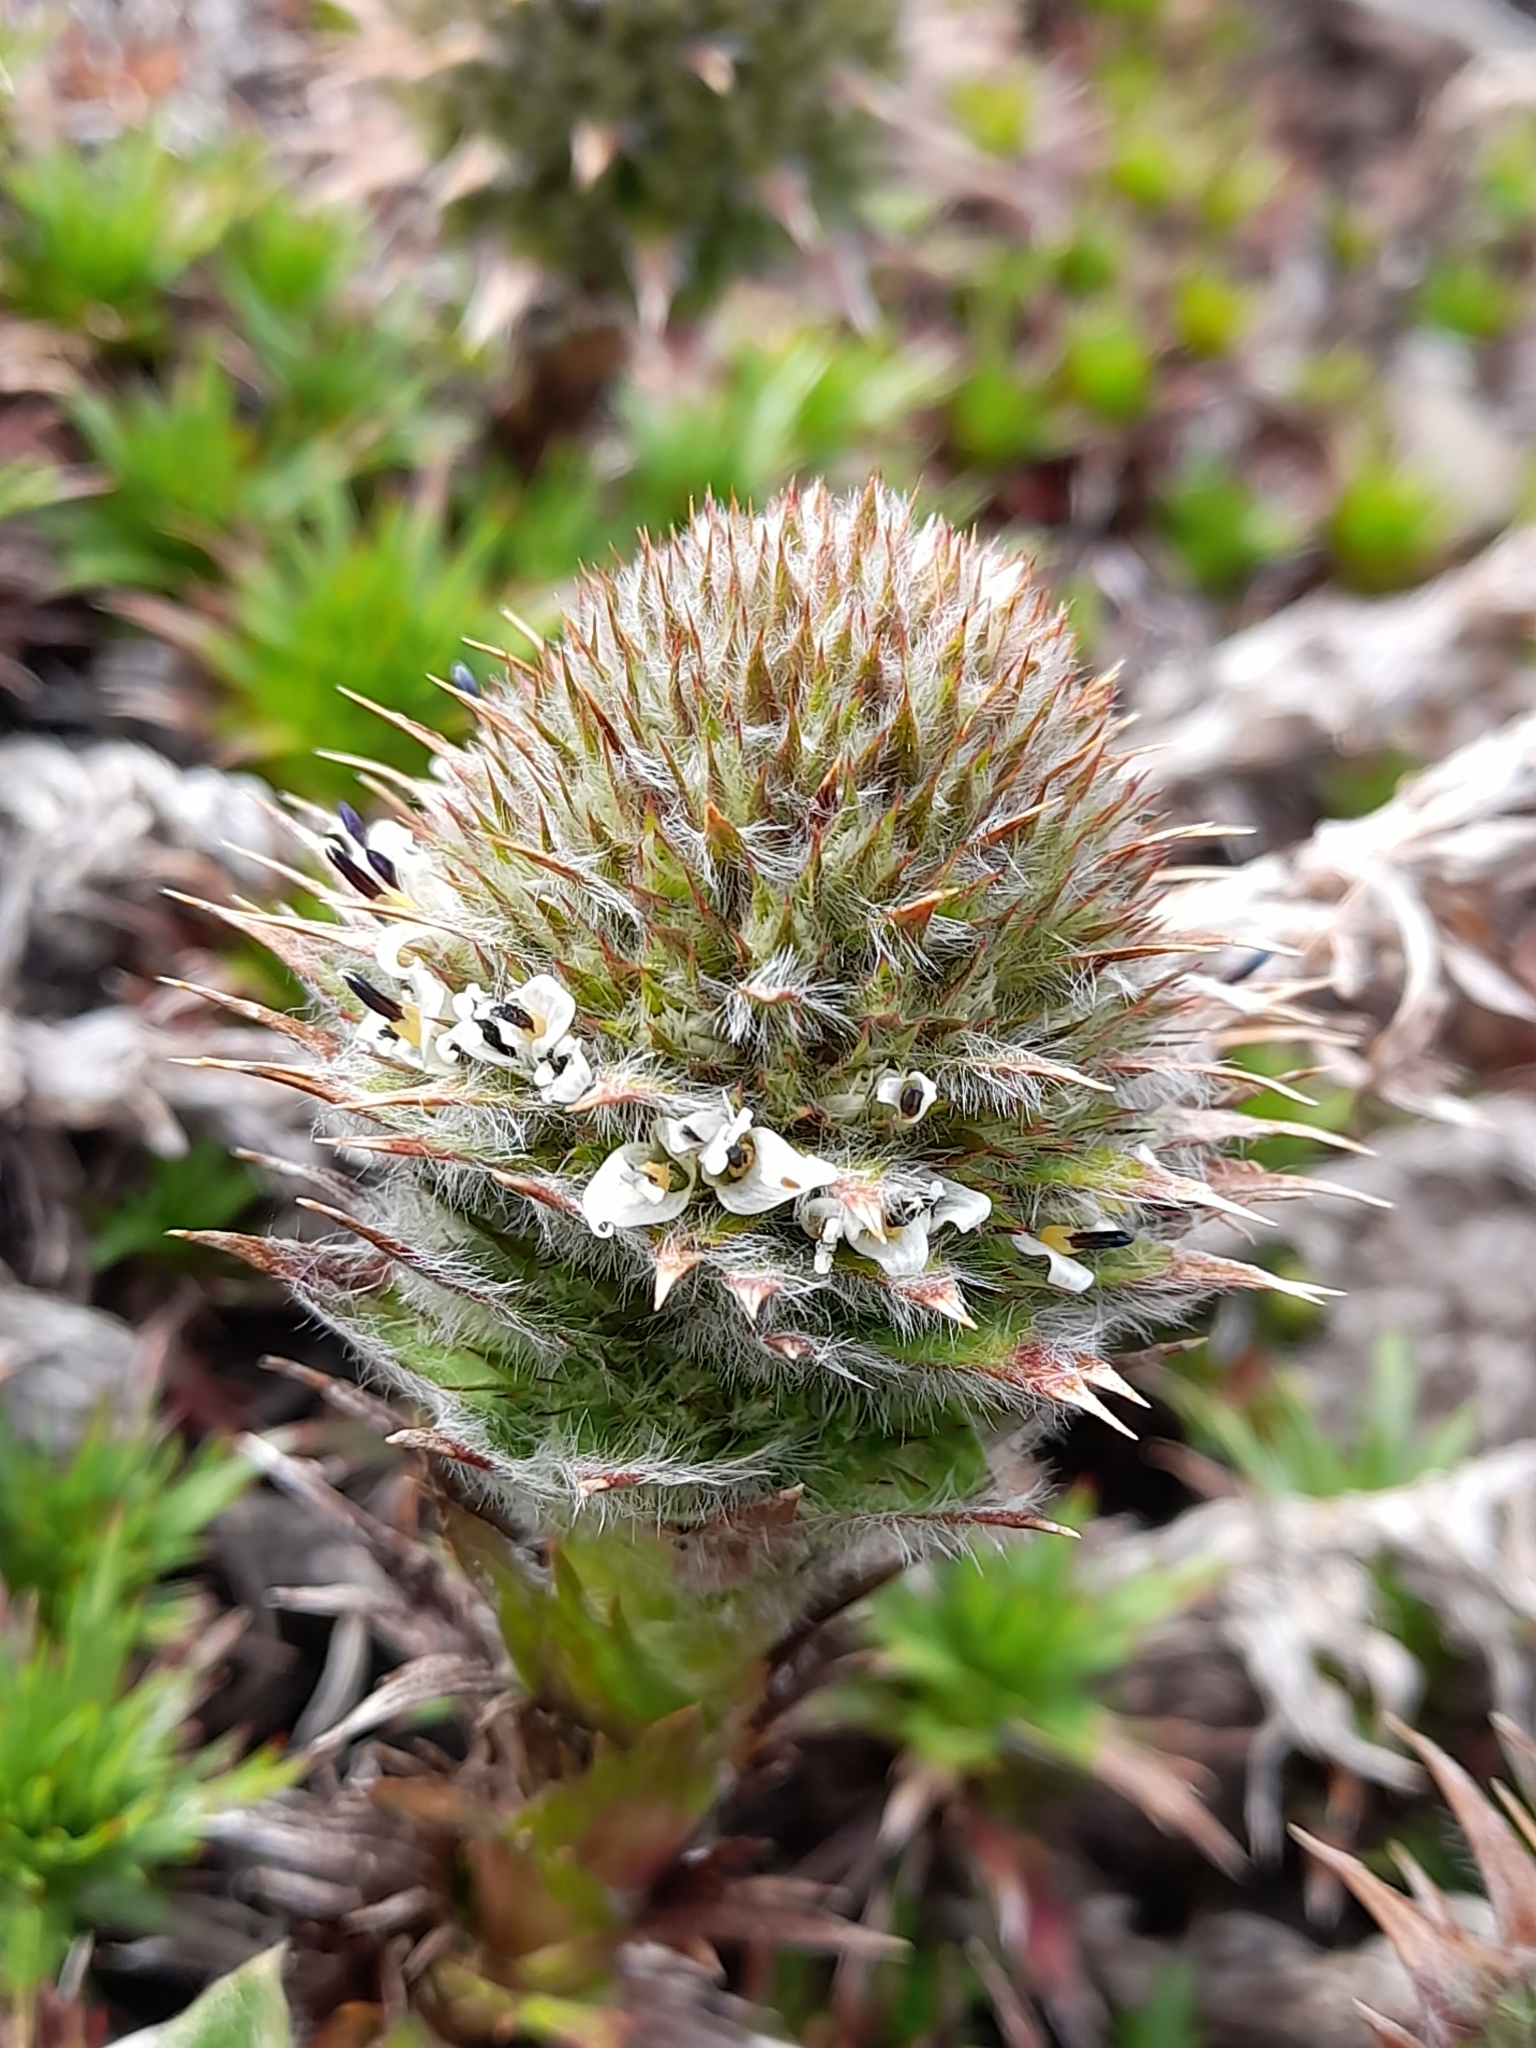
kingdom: Plantae
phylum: Tracheophyta
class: Magnoliopsida
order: Asterales
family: Asteraceae
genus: Nassauvia
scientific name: Nassauvia magellanica
